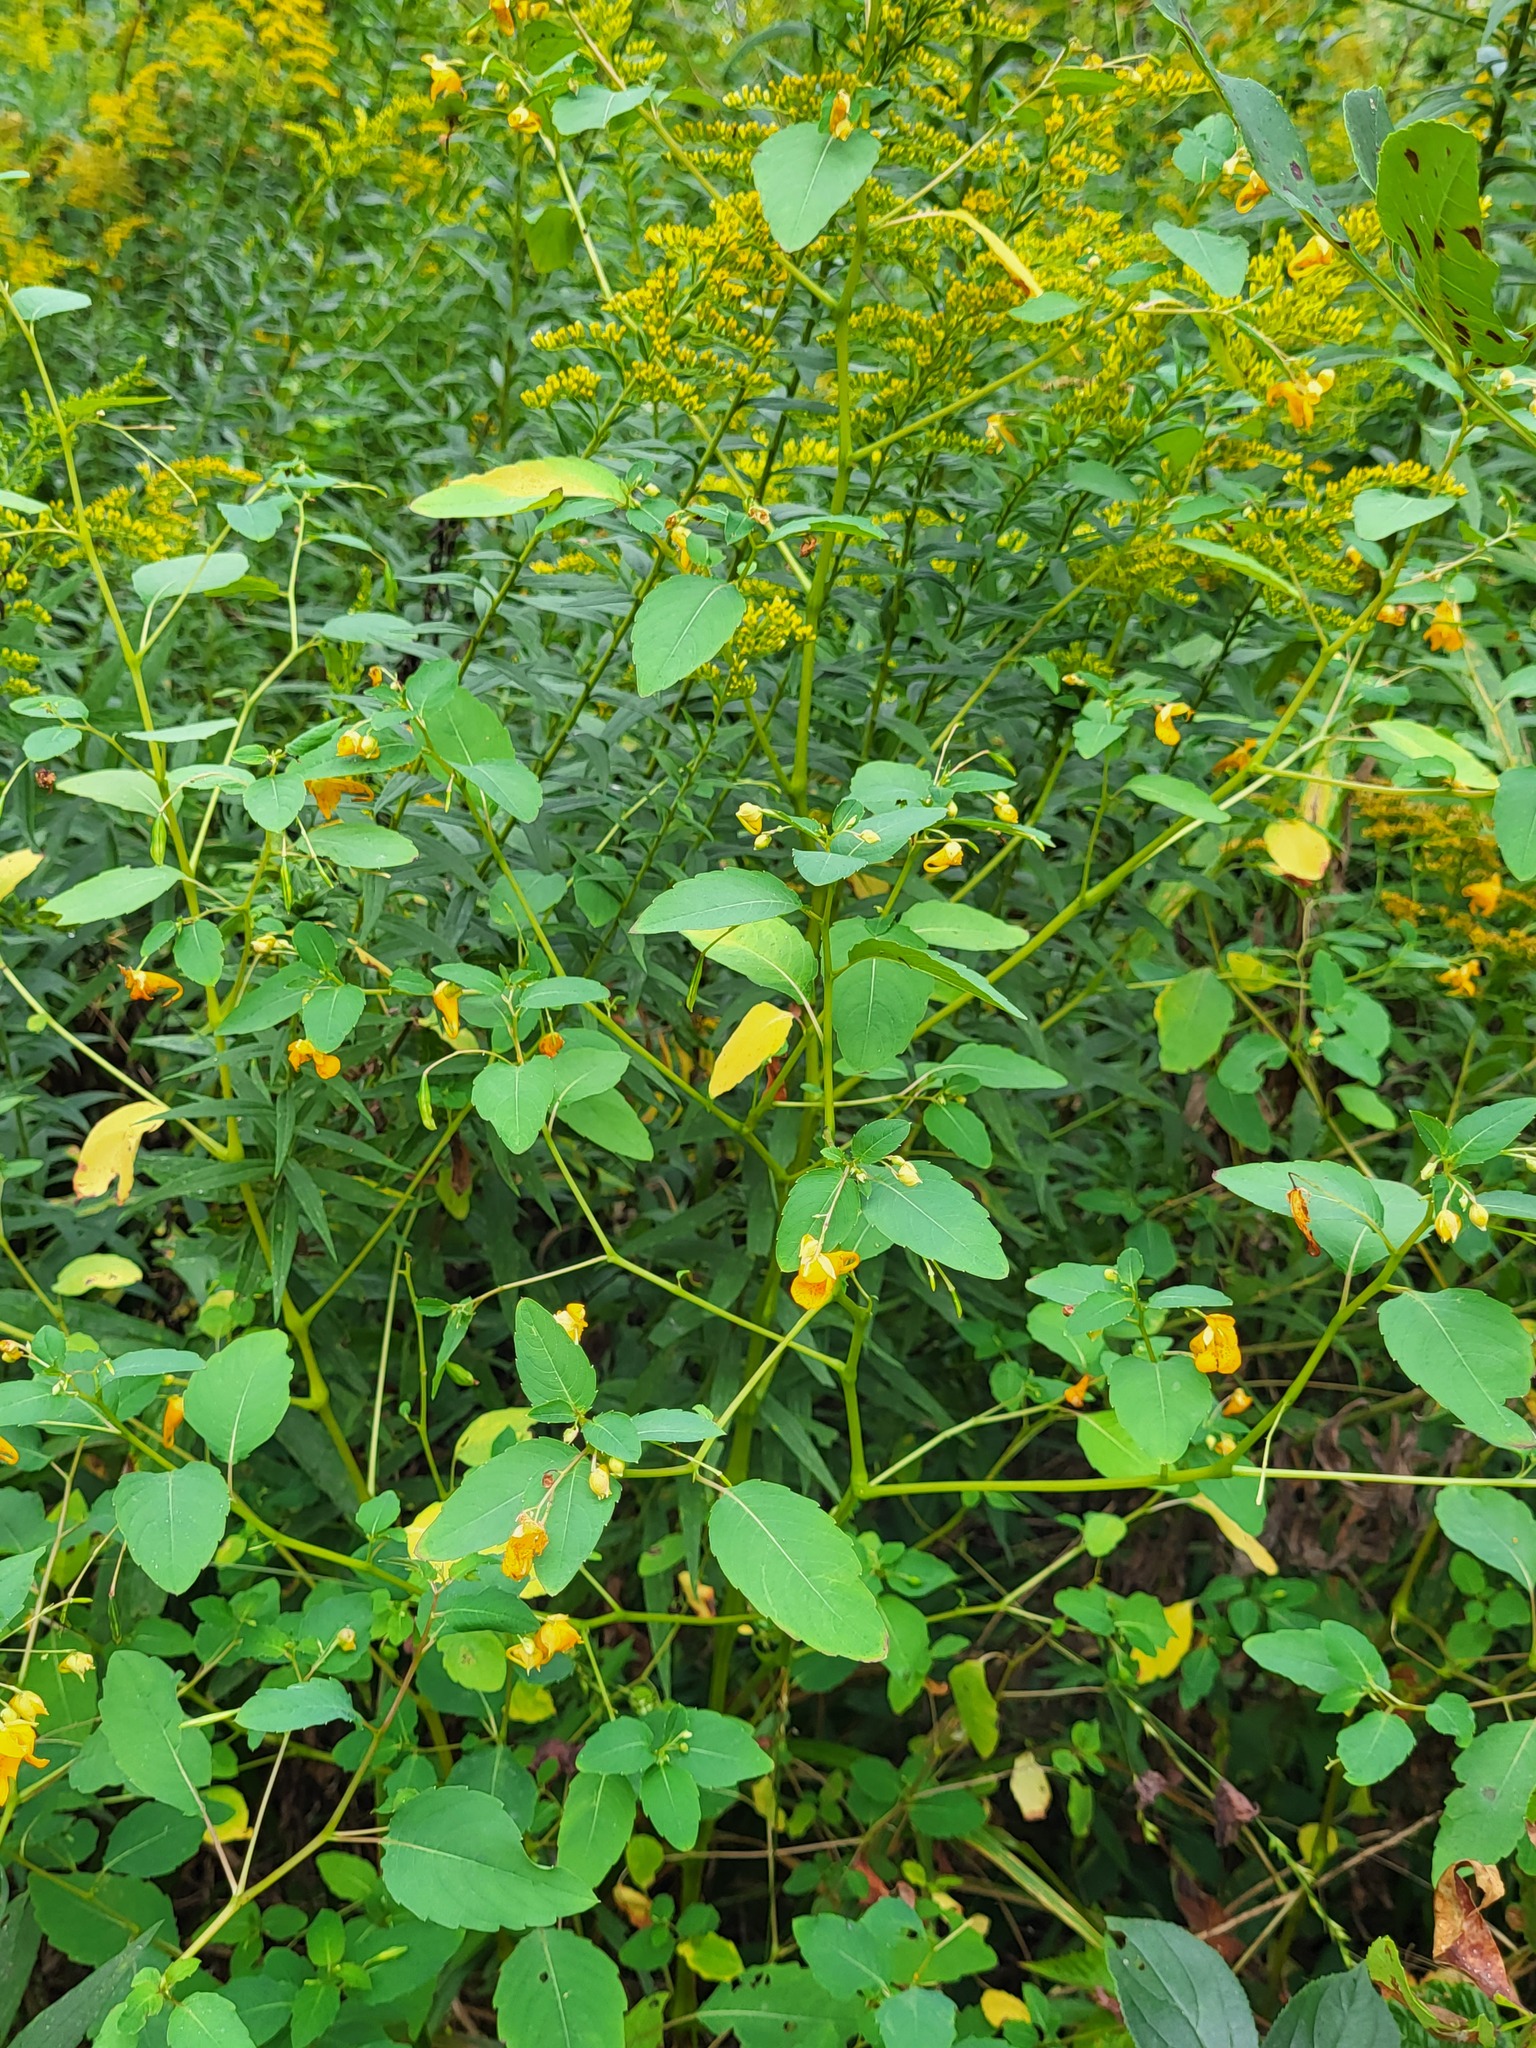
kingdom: Plantae
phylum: Tracheophyta
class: Magnoliopsida
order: Ericales
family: Balsaminaceae
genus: Impatiens
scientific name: Impatiens capensis
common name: Orange balsam
